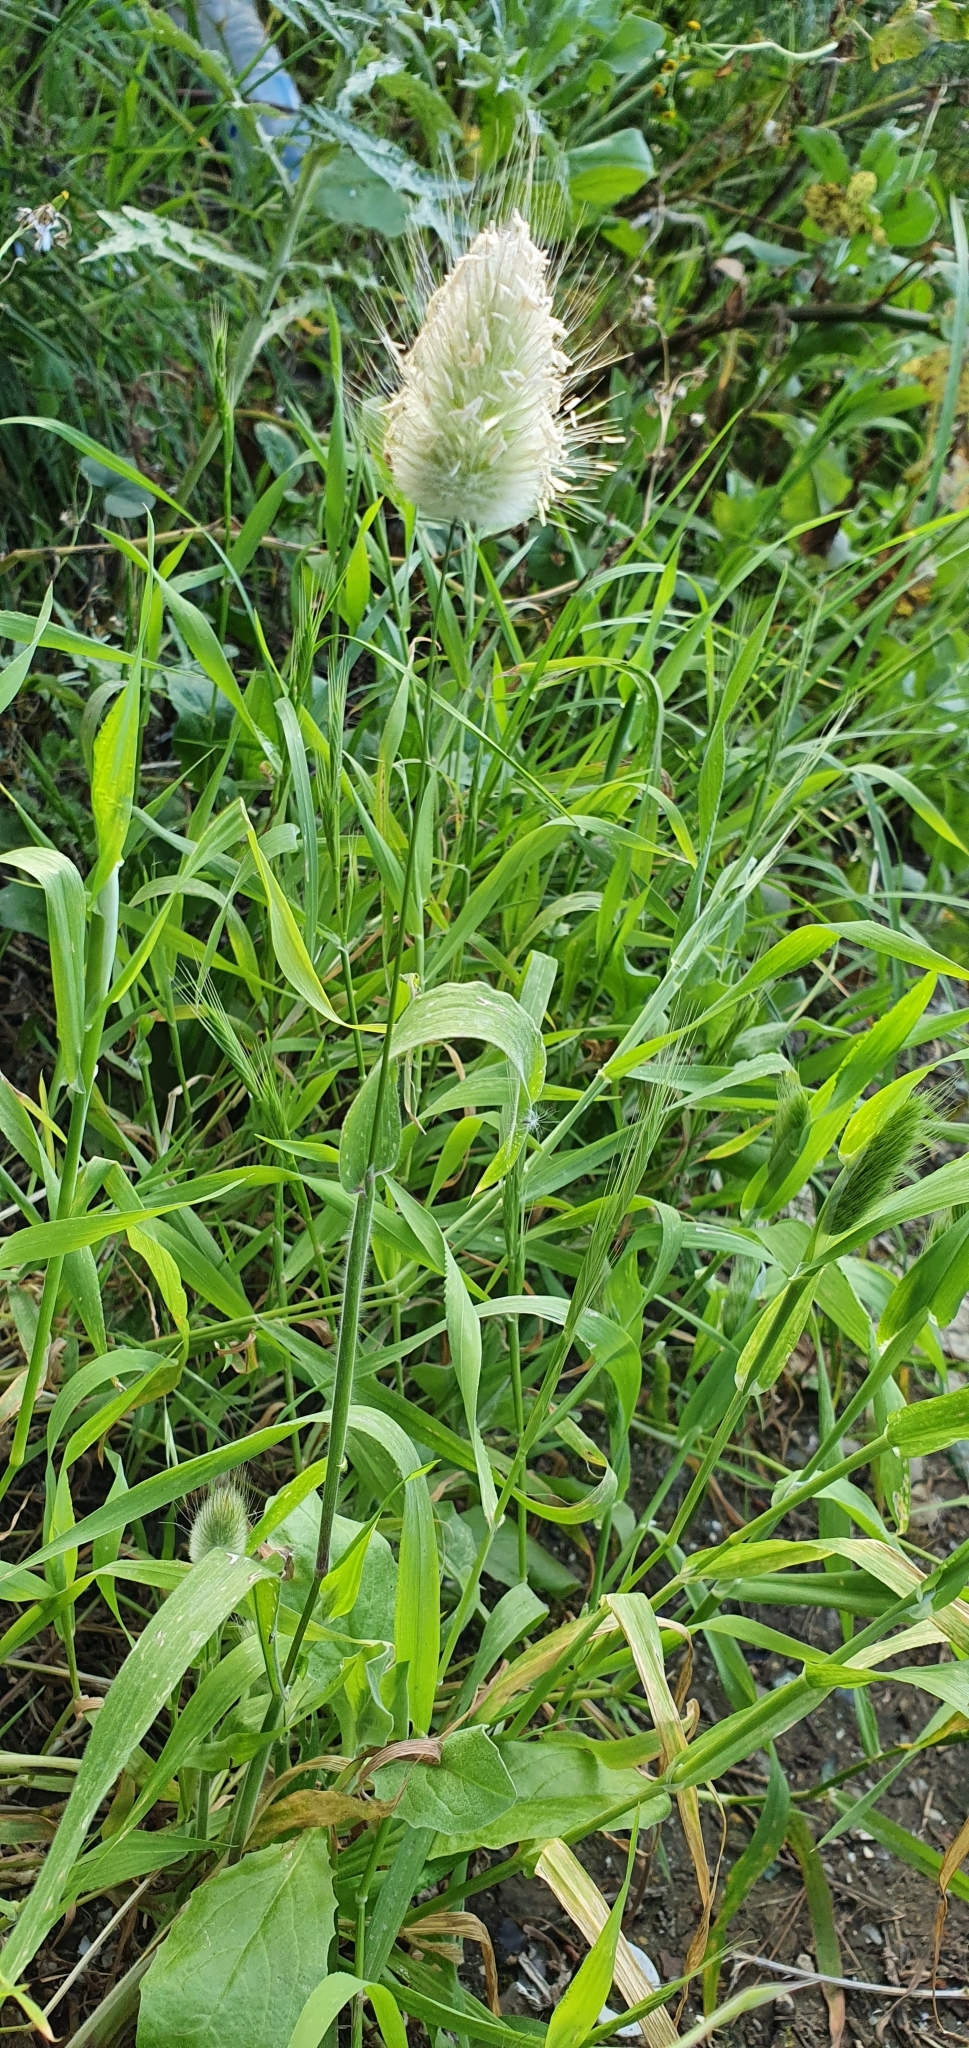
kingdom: Plantae
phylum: Tracheophyta
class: Liliopsida
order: Poales
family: Poaceae
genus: Lagurus
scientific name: Lagurus ovatus
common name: Hare's-tail
